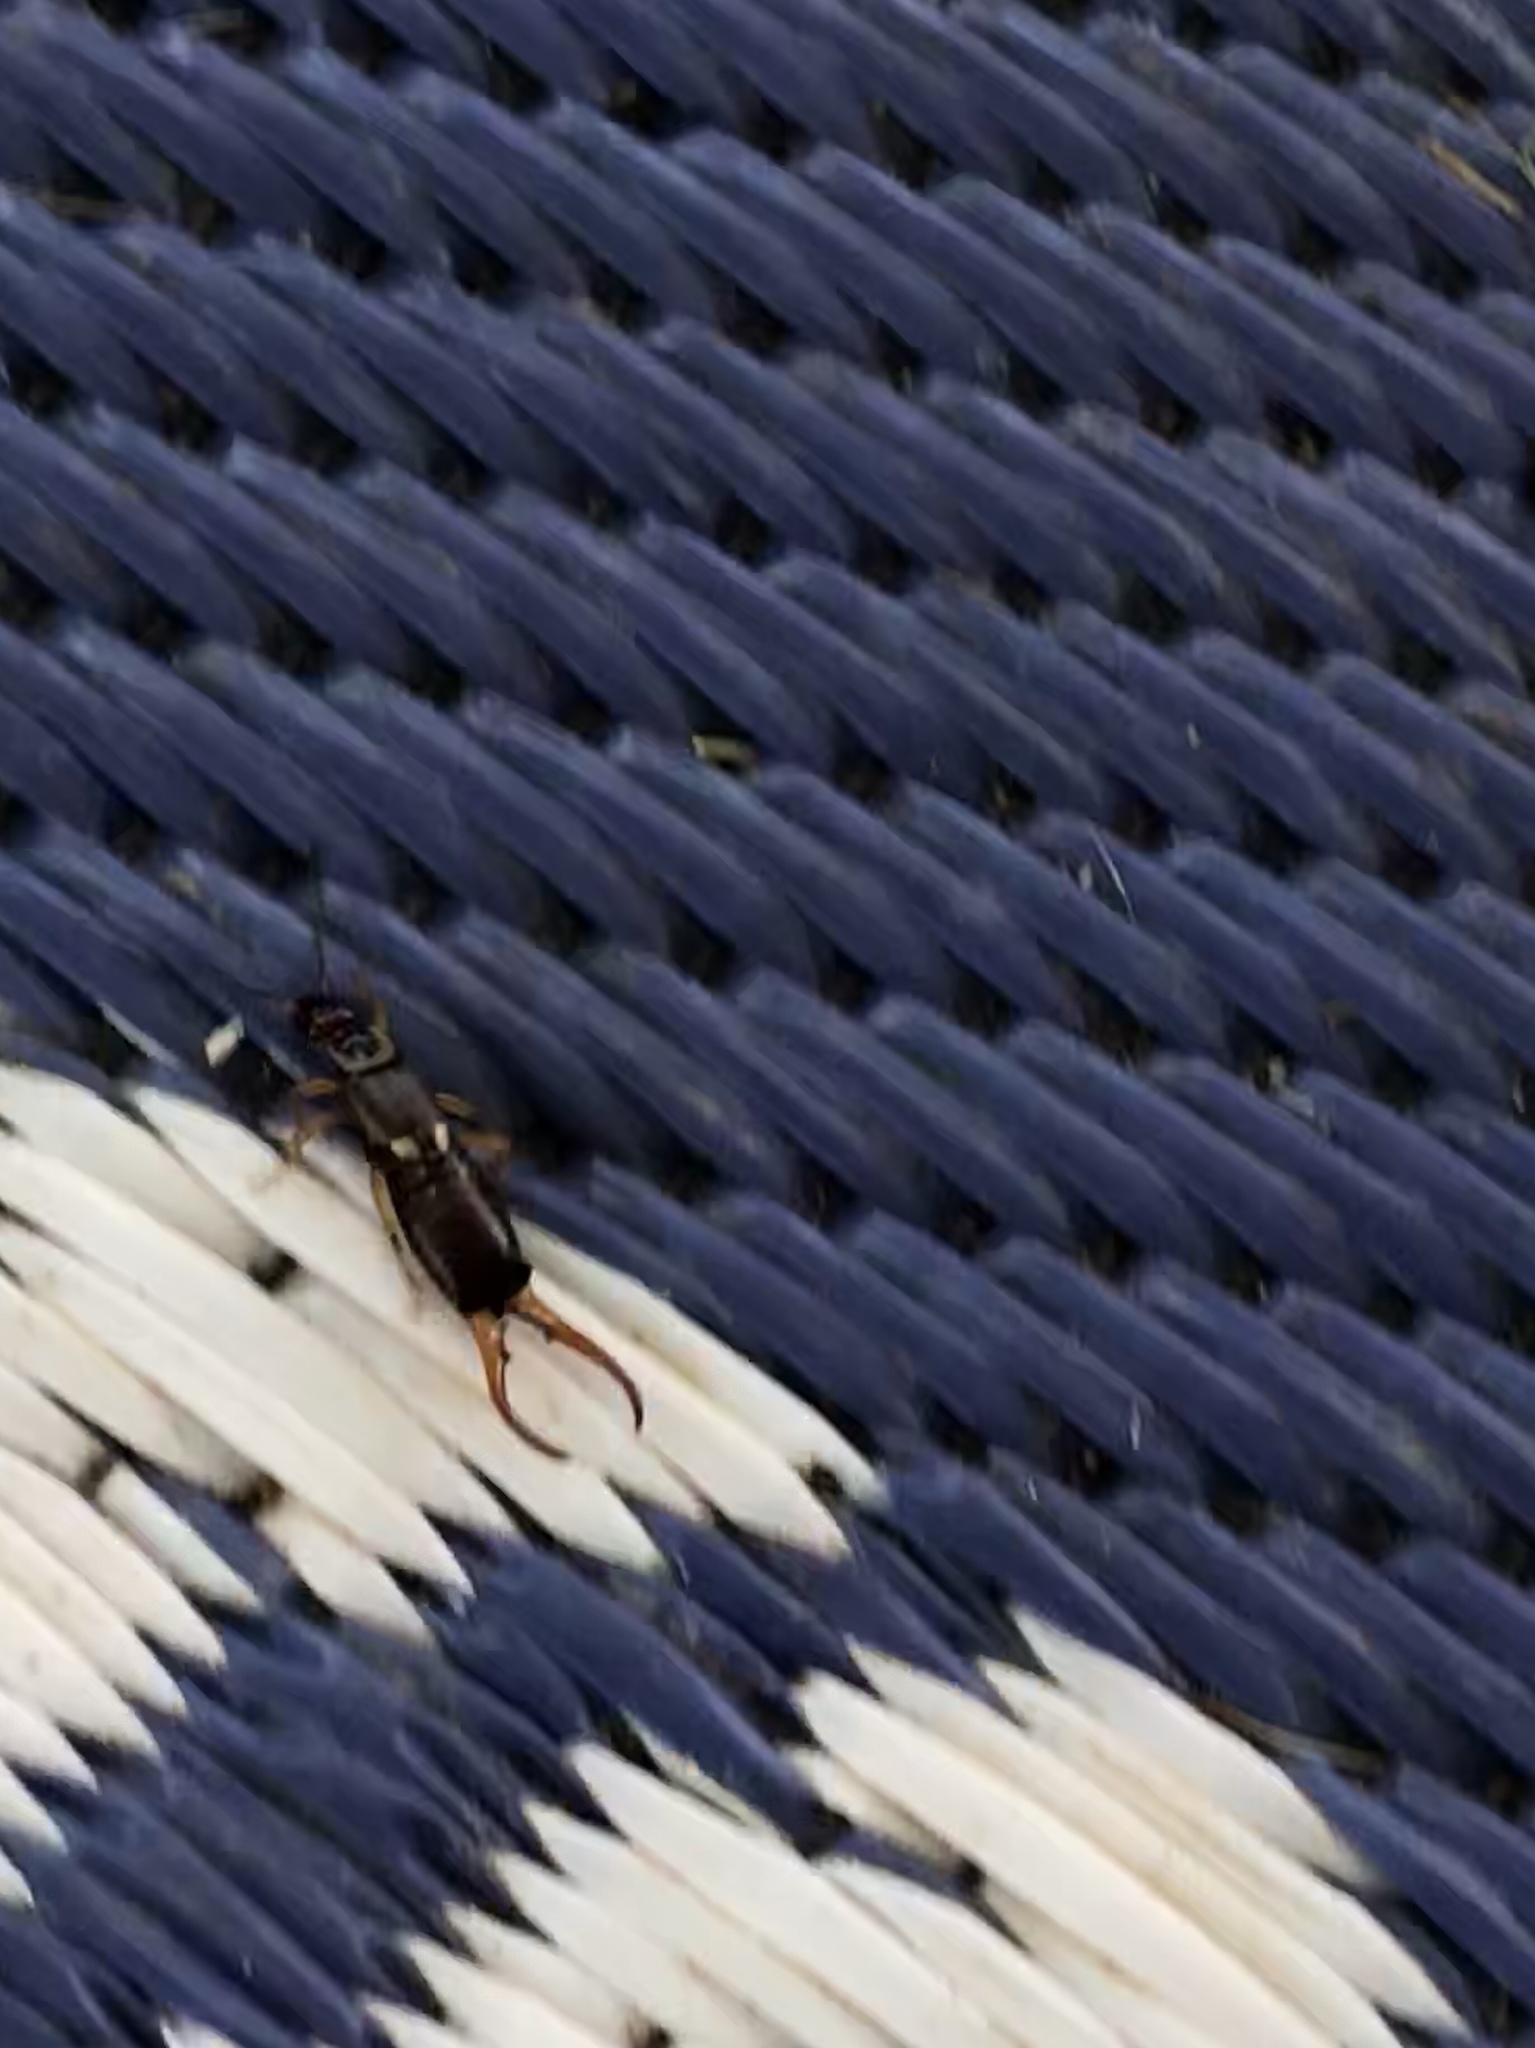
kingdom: Animalia
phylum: Arthropoda
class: Insecta
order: Dermaptera
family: Forficulidae
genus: Forficula
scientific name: Forficula
